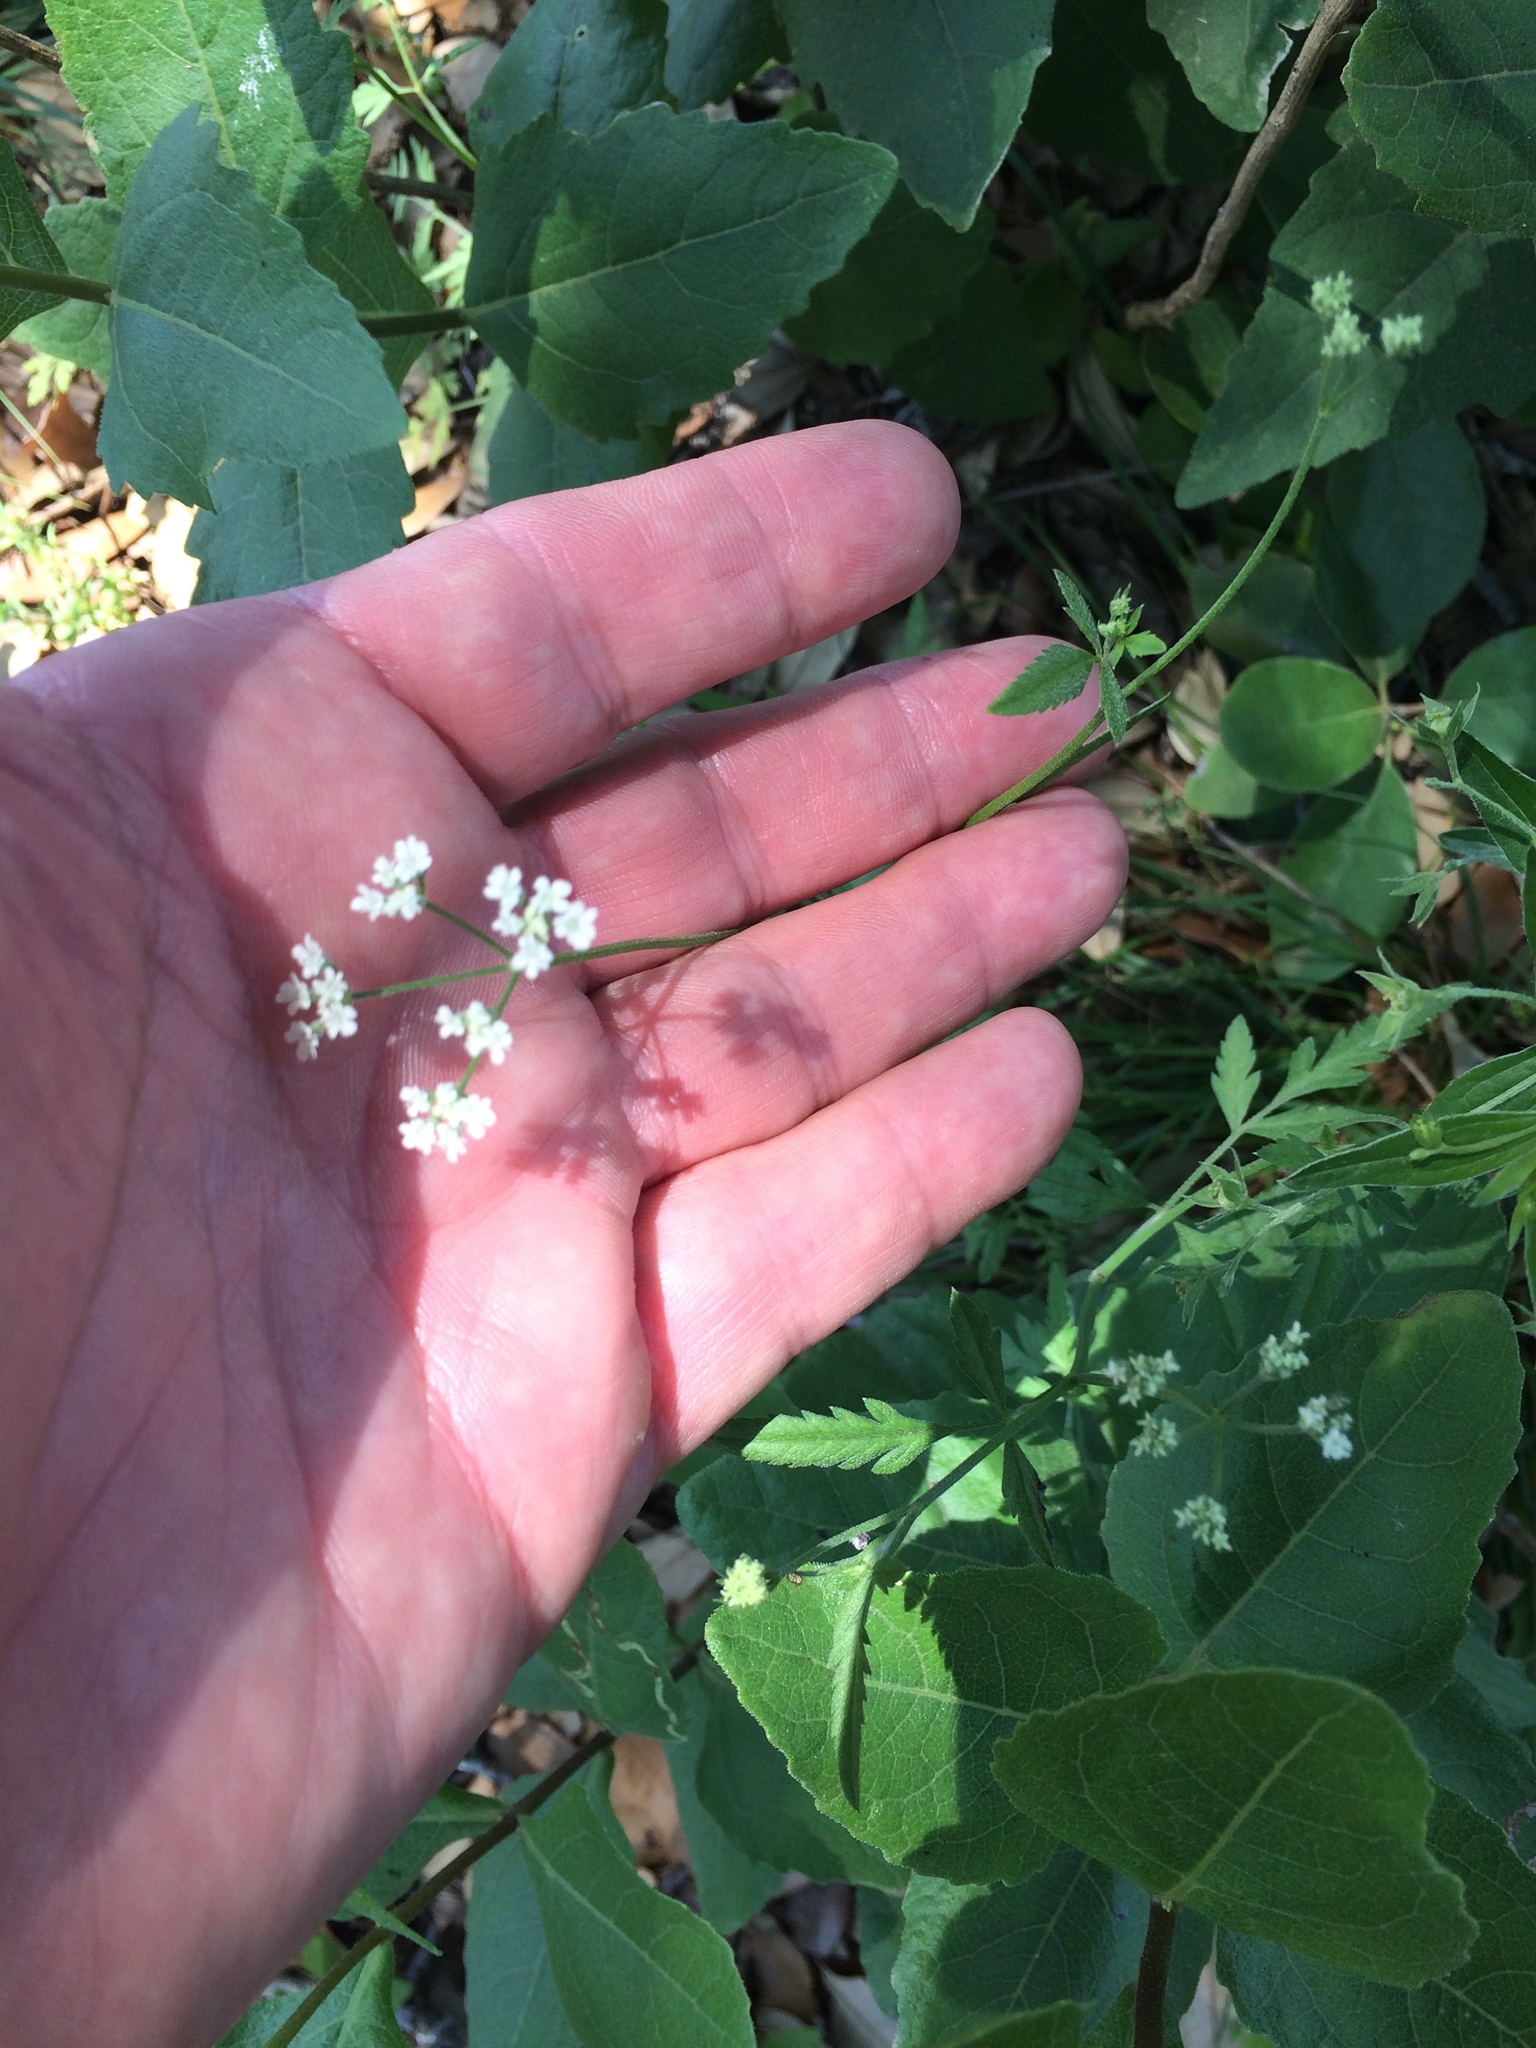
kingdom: Plantae
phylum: Tracheophyta
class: Magnoliopsida
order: Apiales
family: Apiaceae
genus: Torilis
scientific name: Torilis arvensis
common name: Spreading hedge-parsley
